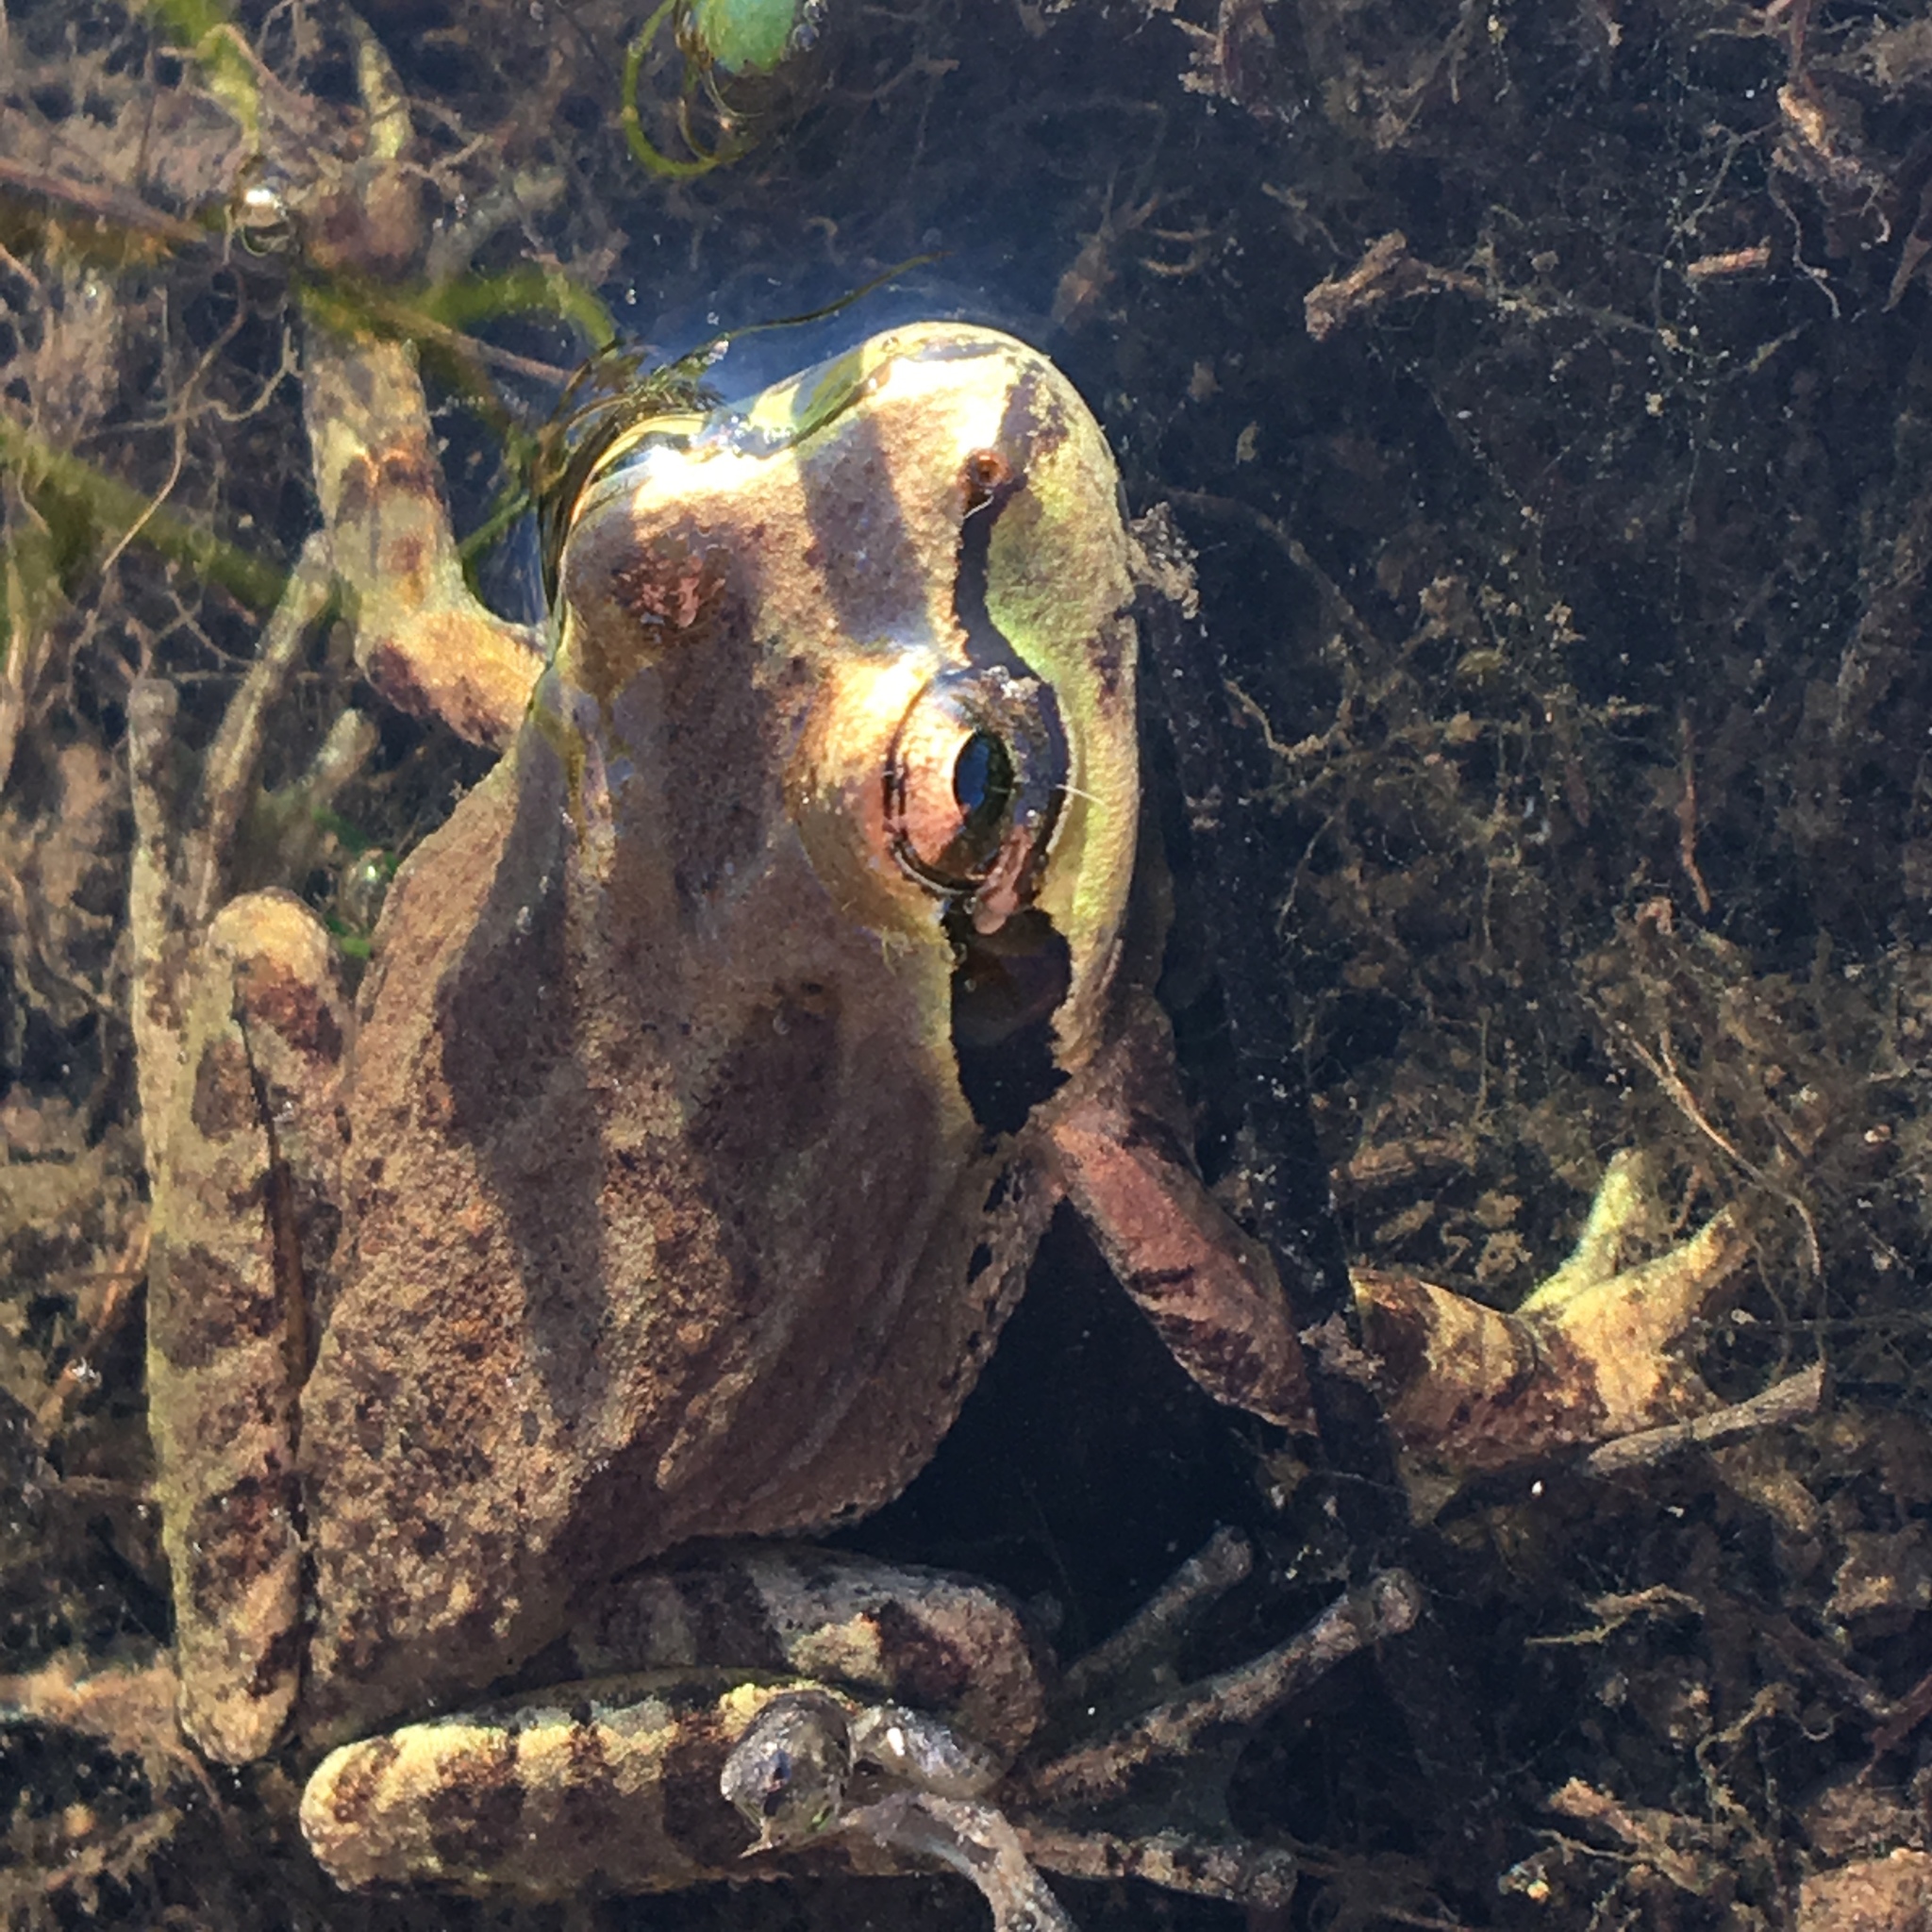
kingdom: Animalia
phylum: Chordata
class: Amphibia
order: Anura
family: Hylidae
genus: Pseudacris
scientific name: Pseudacris regilla
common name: Pacific chorus frog
